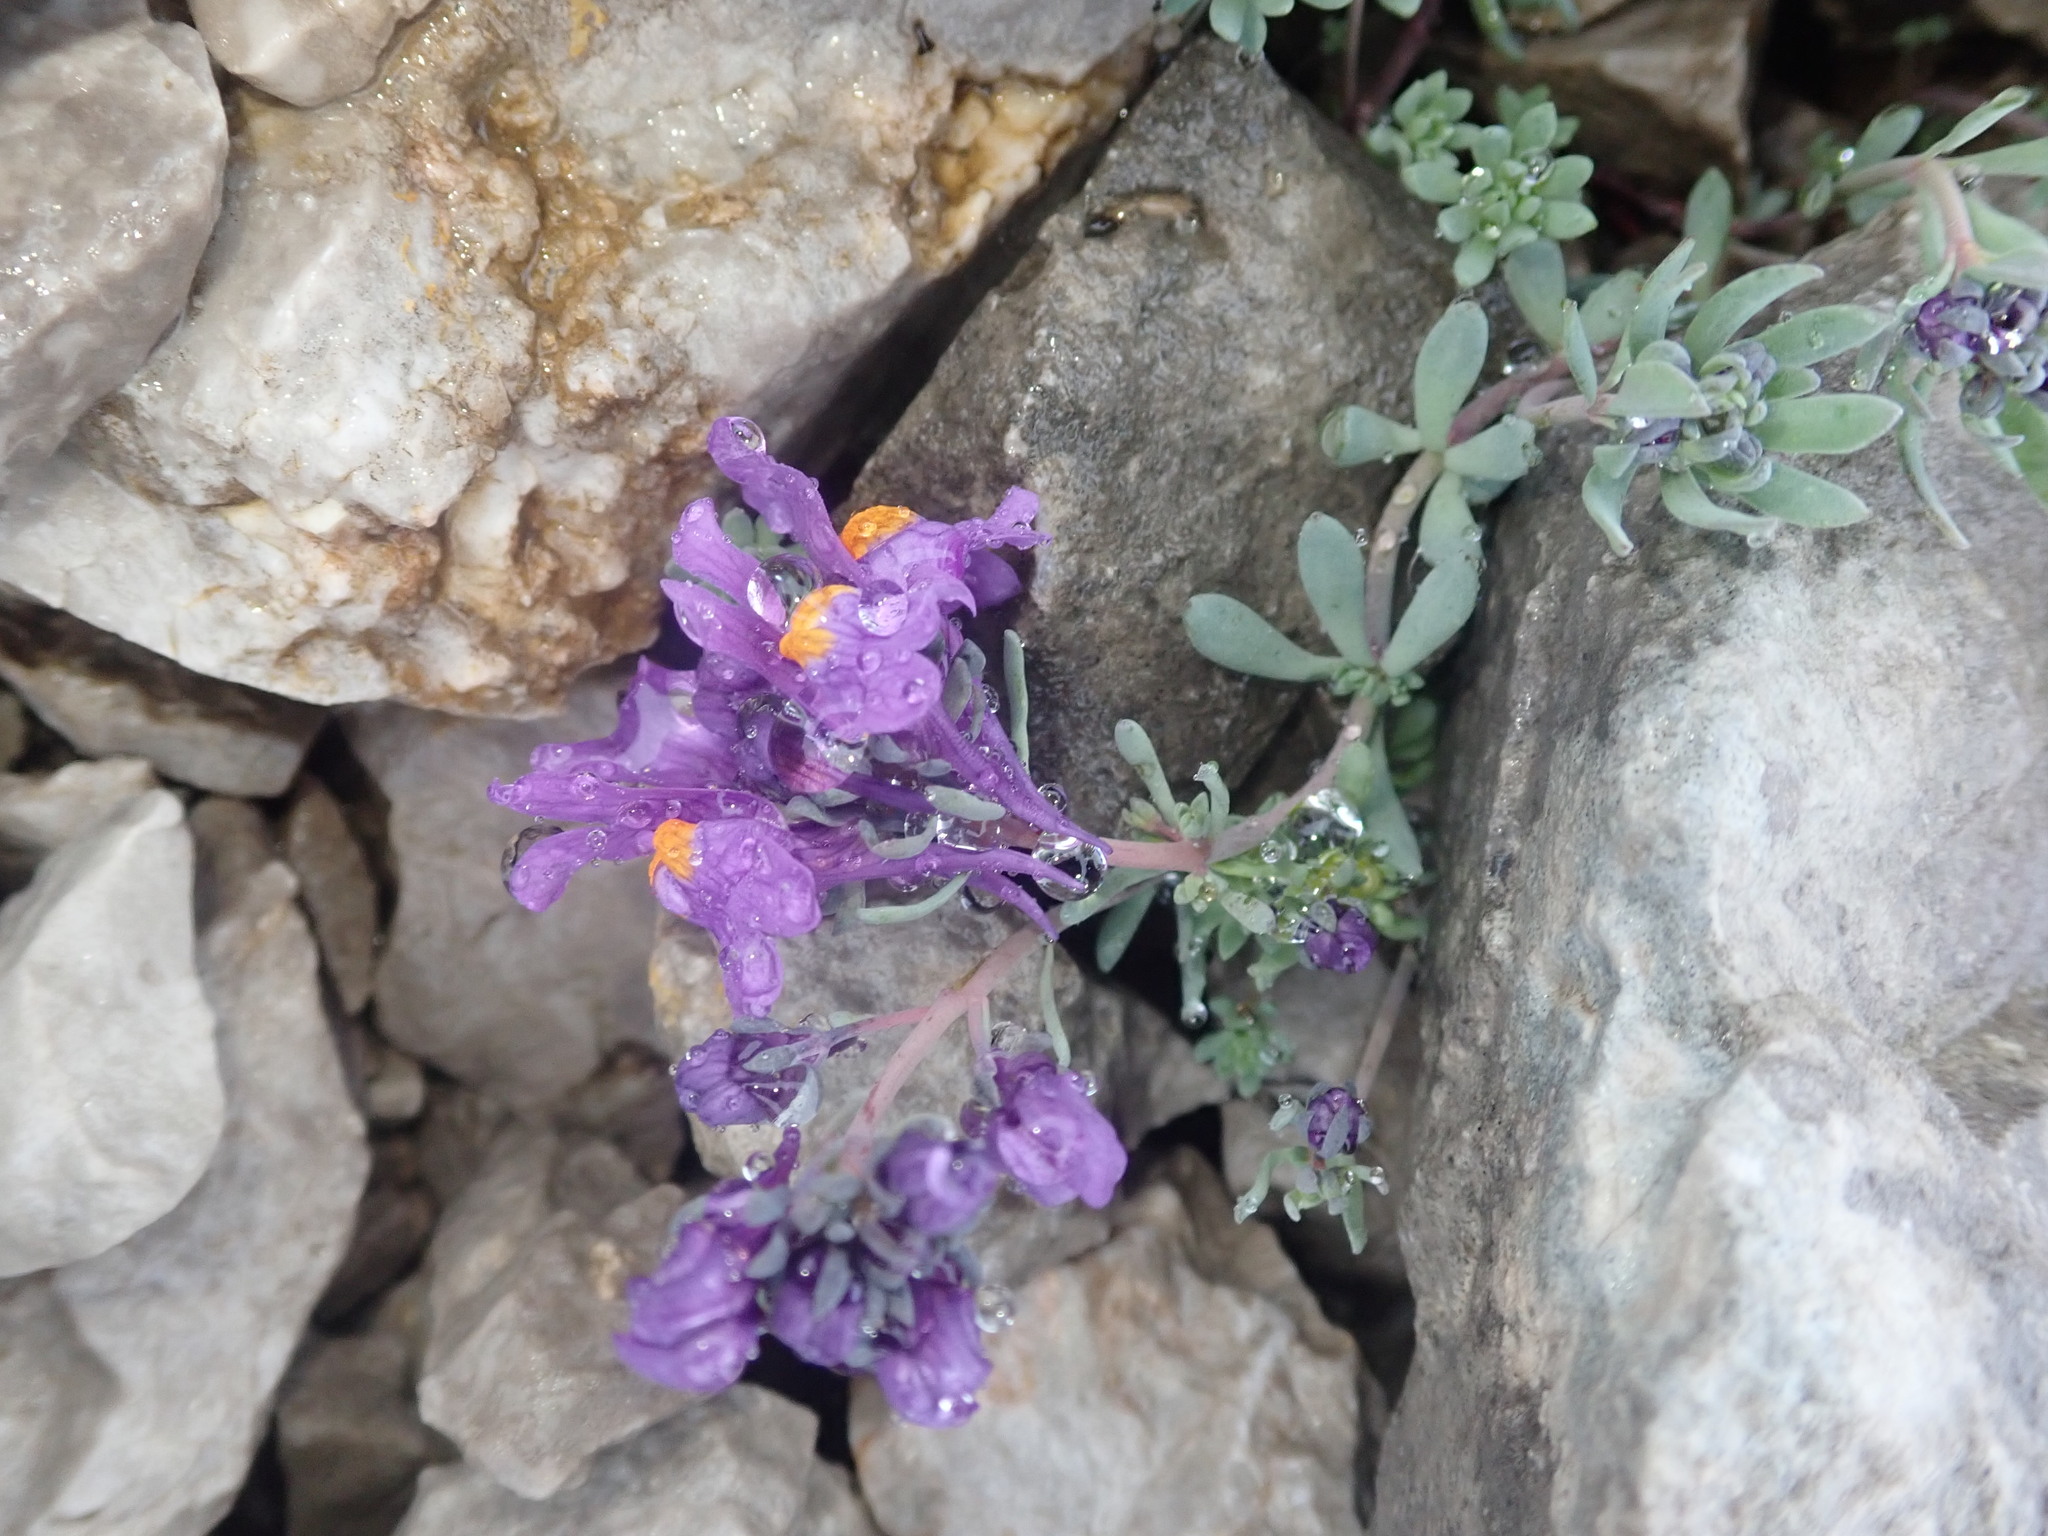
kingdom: Plantae
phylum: Tracheophyta
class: Magnoliopsida
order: Lamiales
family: Plantaginaceae
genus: Linaria
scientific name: Linaria alpina
